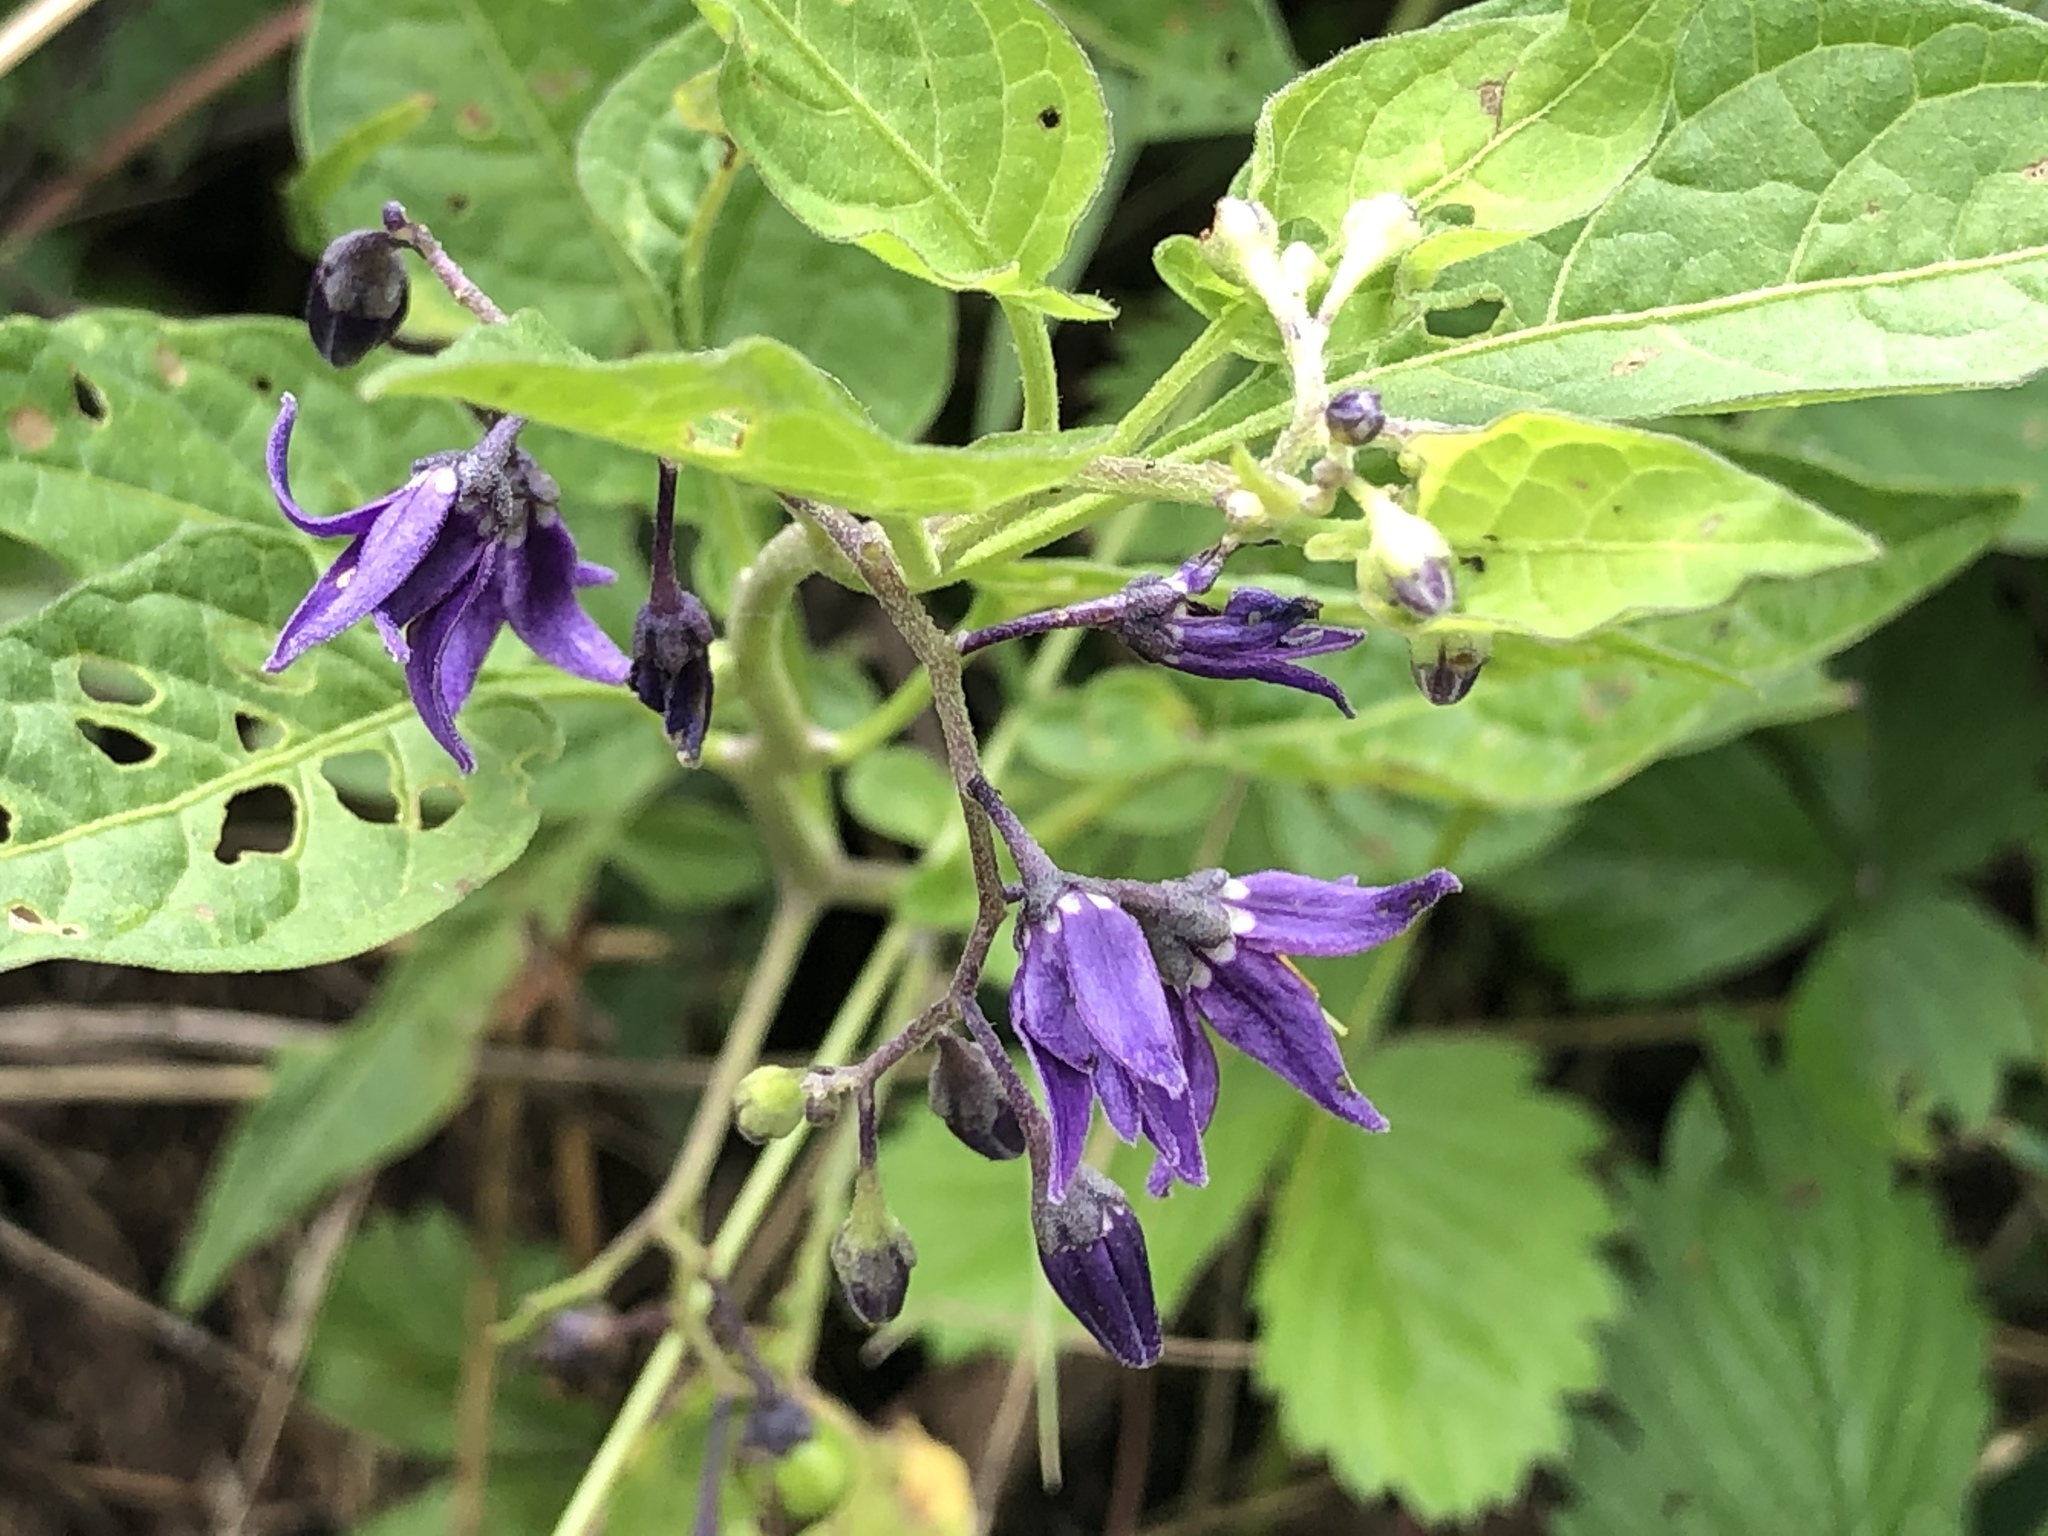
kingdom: Plantae
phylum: Tracheophyta
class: Magnoliopsida
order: Solanales
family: Solanaceae
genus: Solanum
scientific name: Solanum dulcamara
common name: Climbing nightshade
